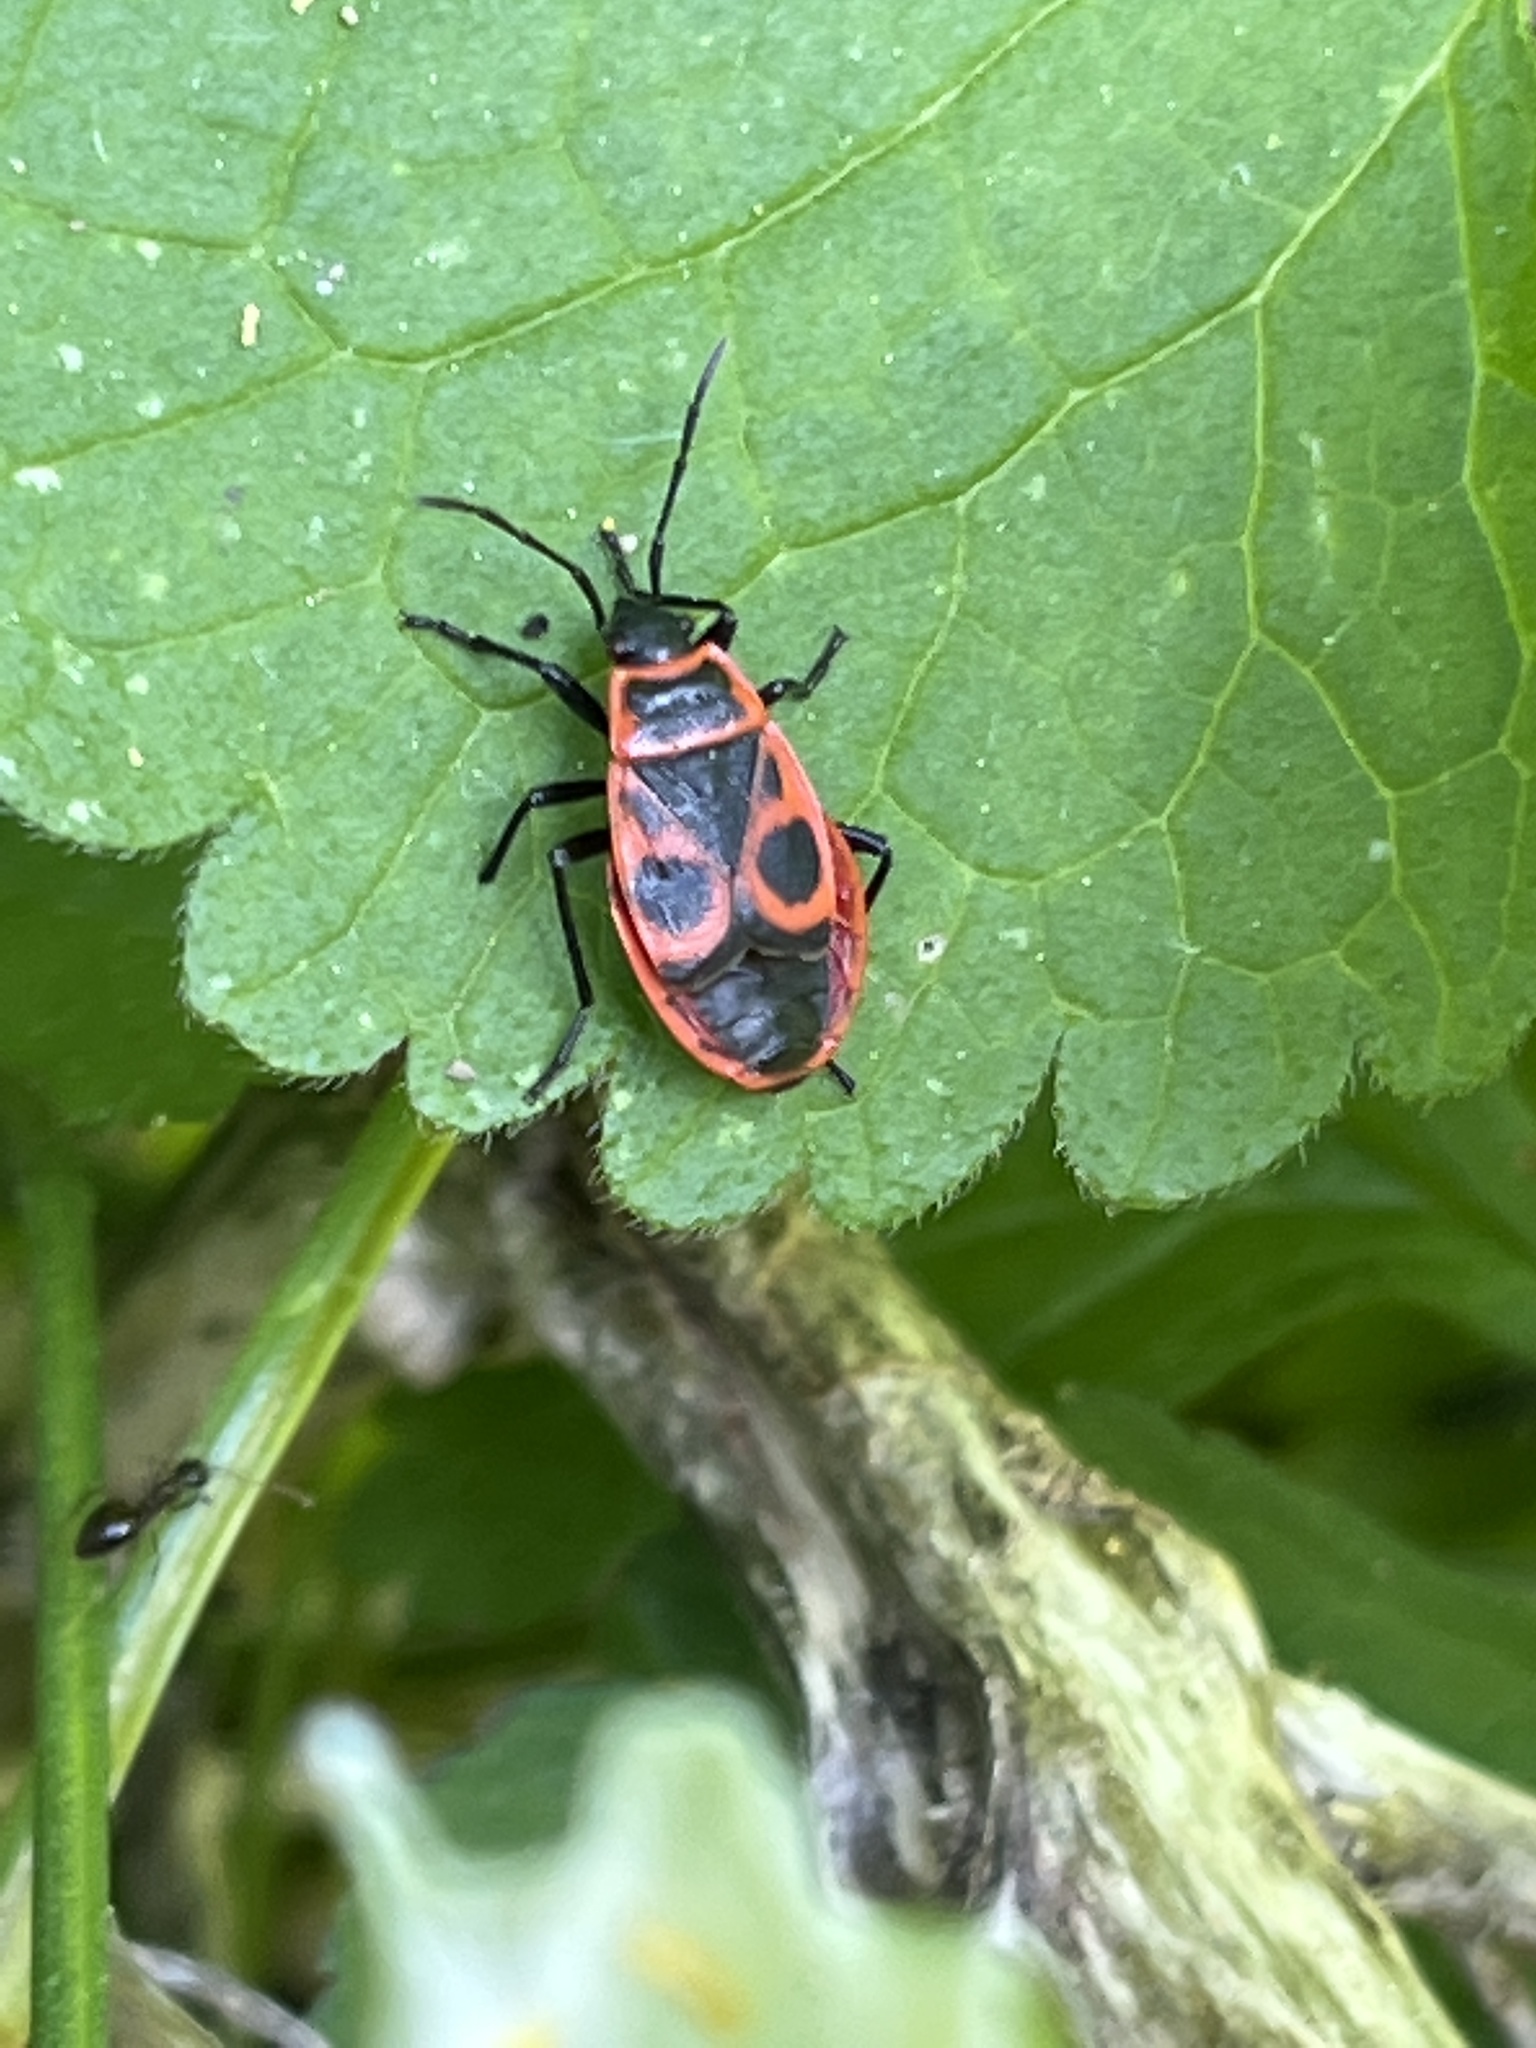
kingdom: Animalia
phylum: Arthropoda
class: Insecta
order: Hemiptera
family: Pyrrhocoridae
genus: Pyrrhocoris
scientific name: Pyrrhocoris apterus
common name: Firebug
